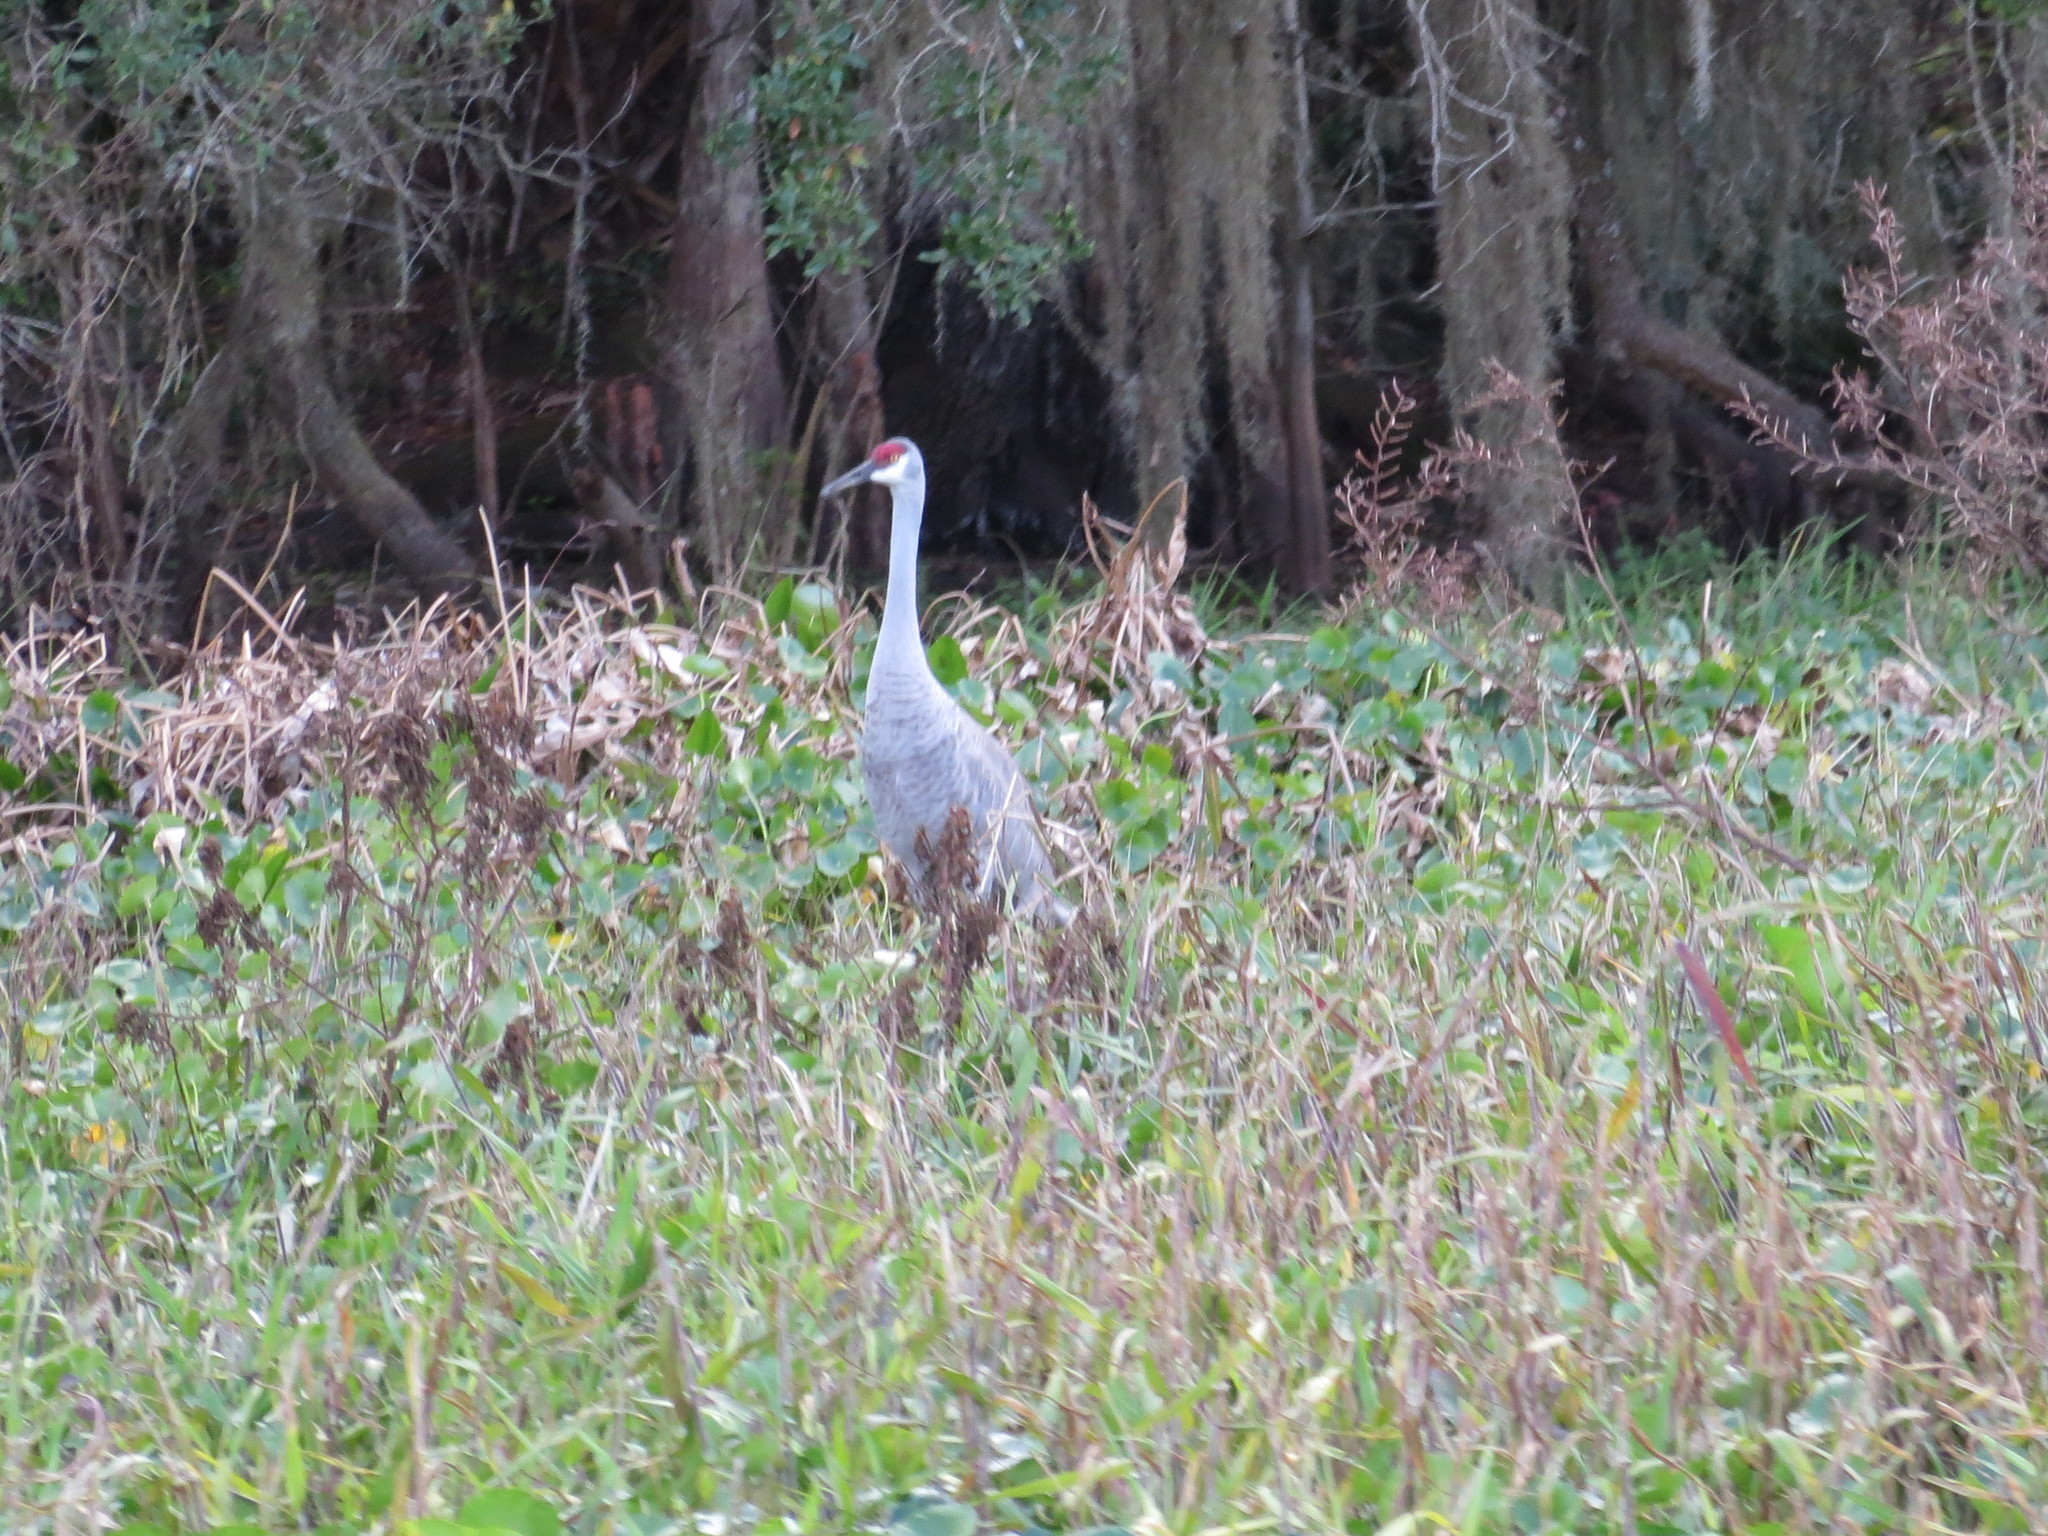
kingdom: Animalia
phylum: Chordata
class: Aves
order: Gruiformes
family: Gruidae
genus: Grus
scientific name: Grus canadensis
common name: Sandhill crane
